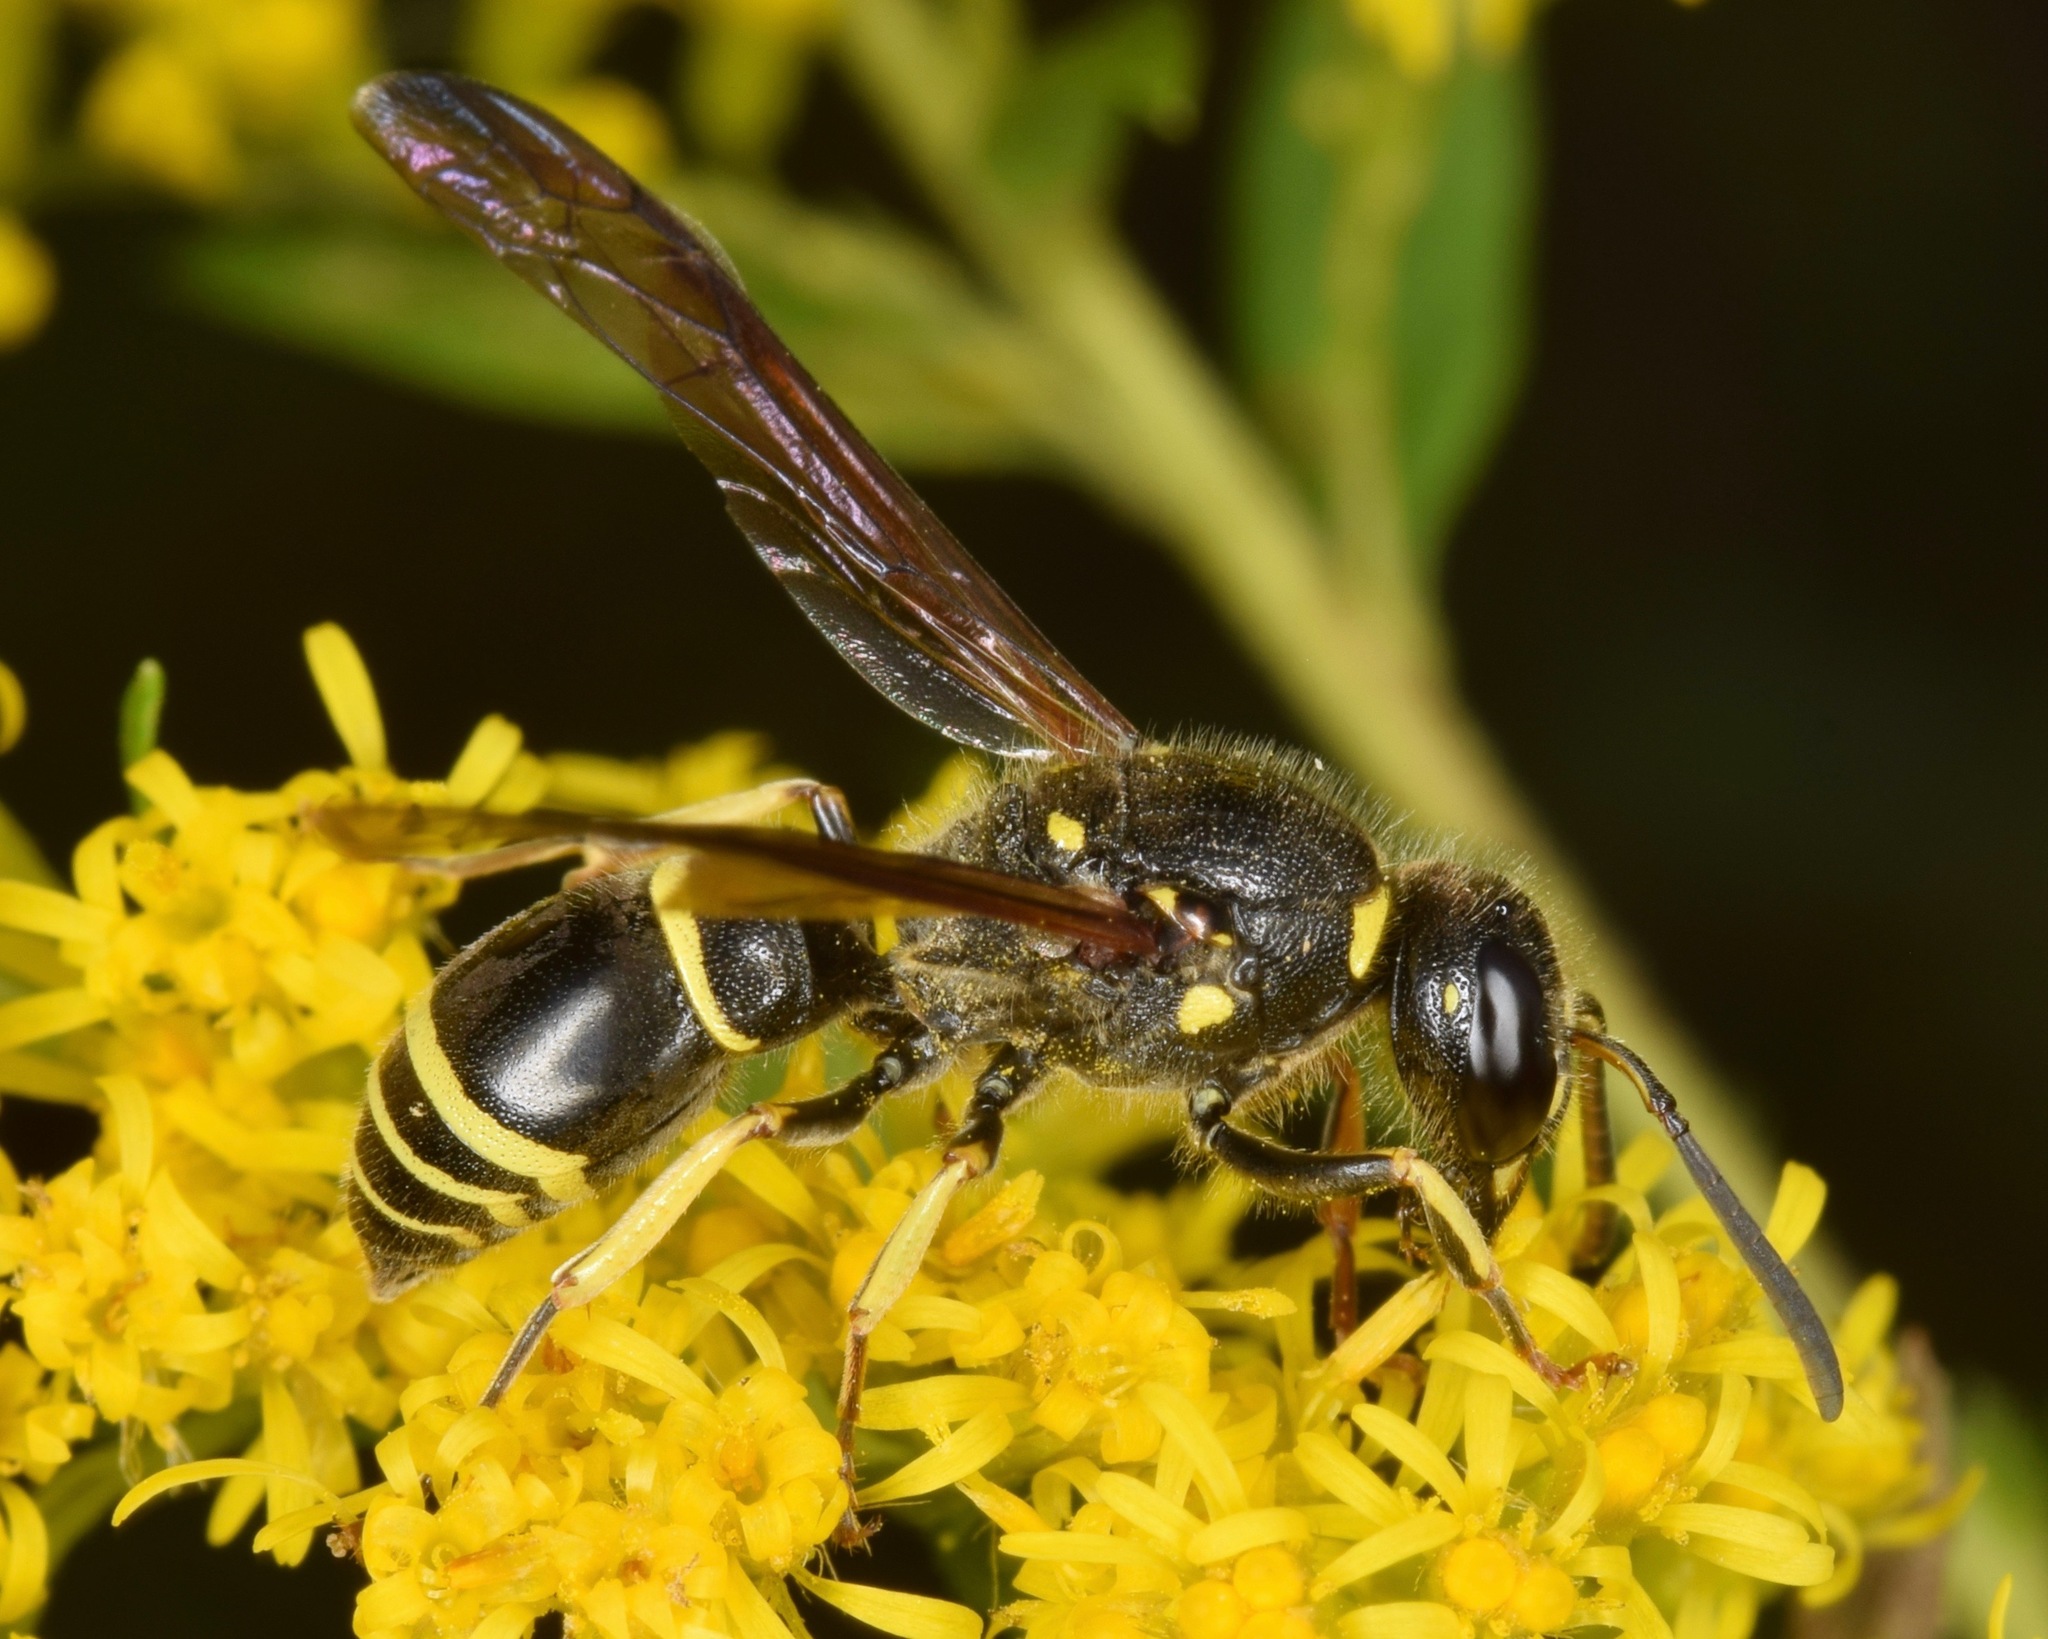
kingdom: Animalia
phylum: Arthropoda
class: Insecta
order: Hymenoptera
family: Vespidae
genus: Ancistrocerus
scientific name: Ancistrocerus
